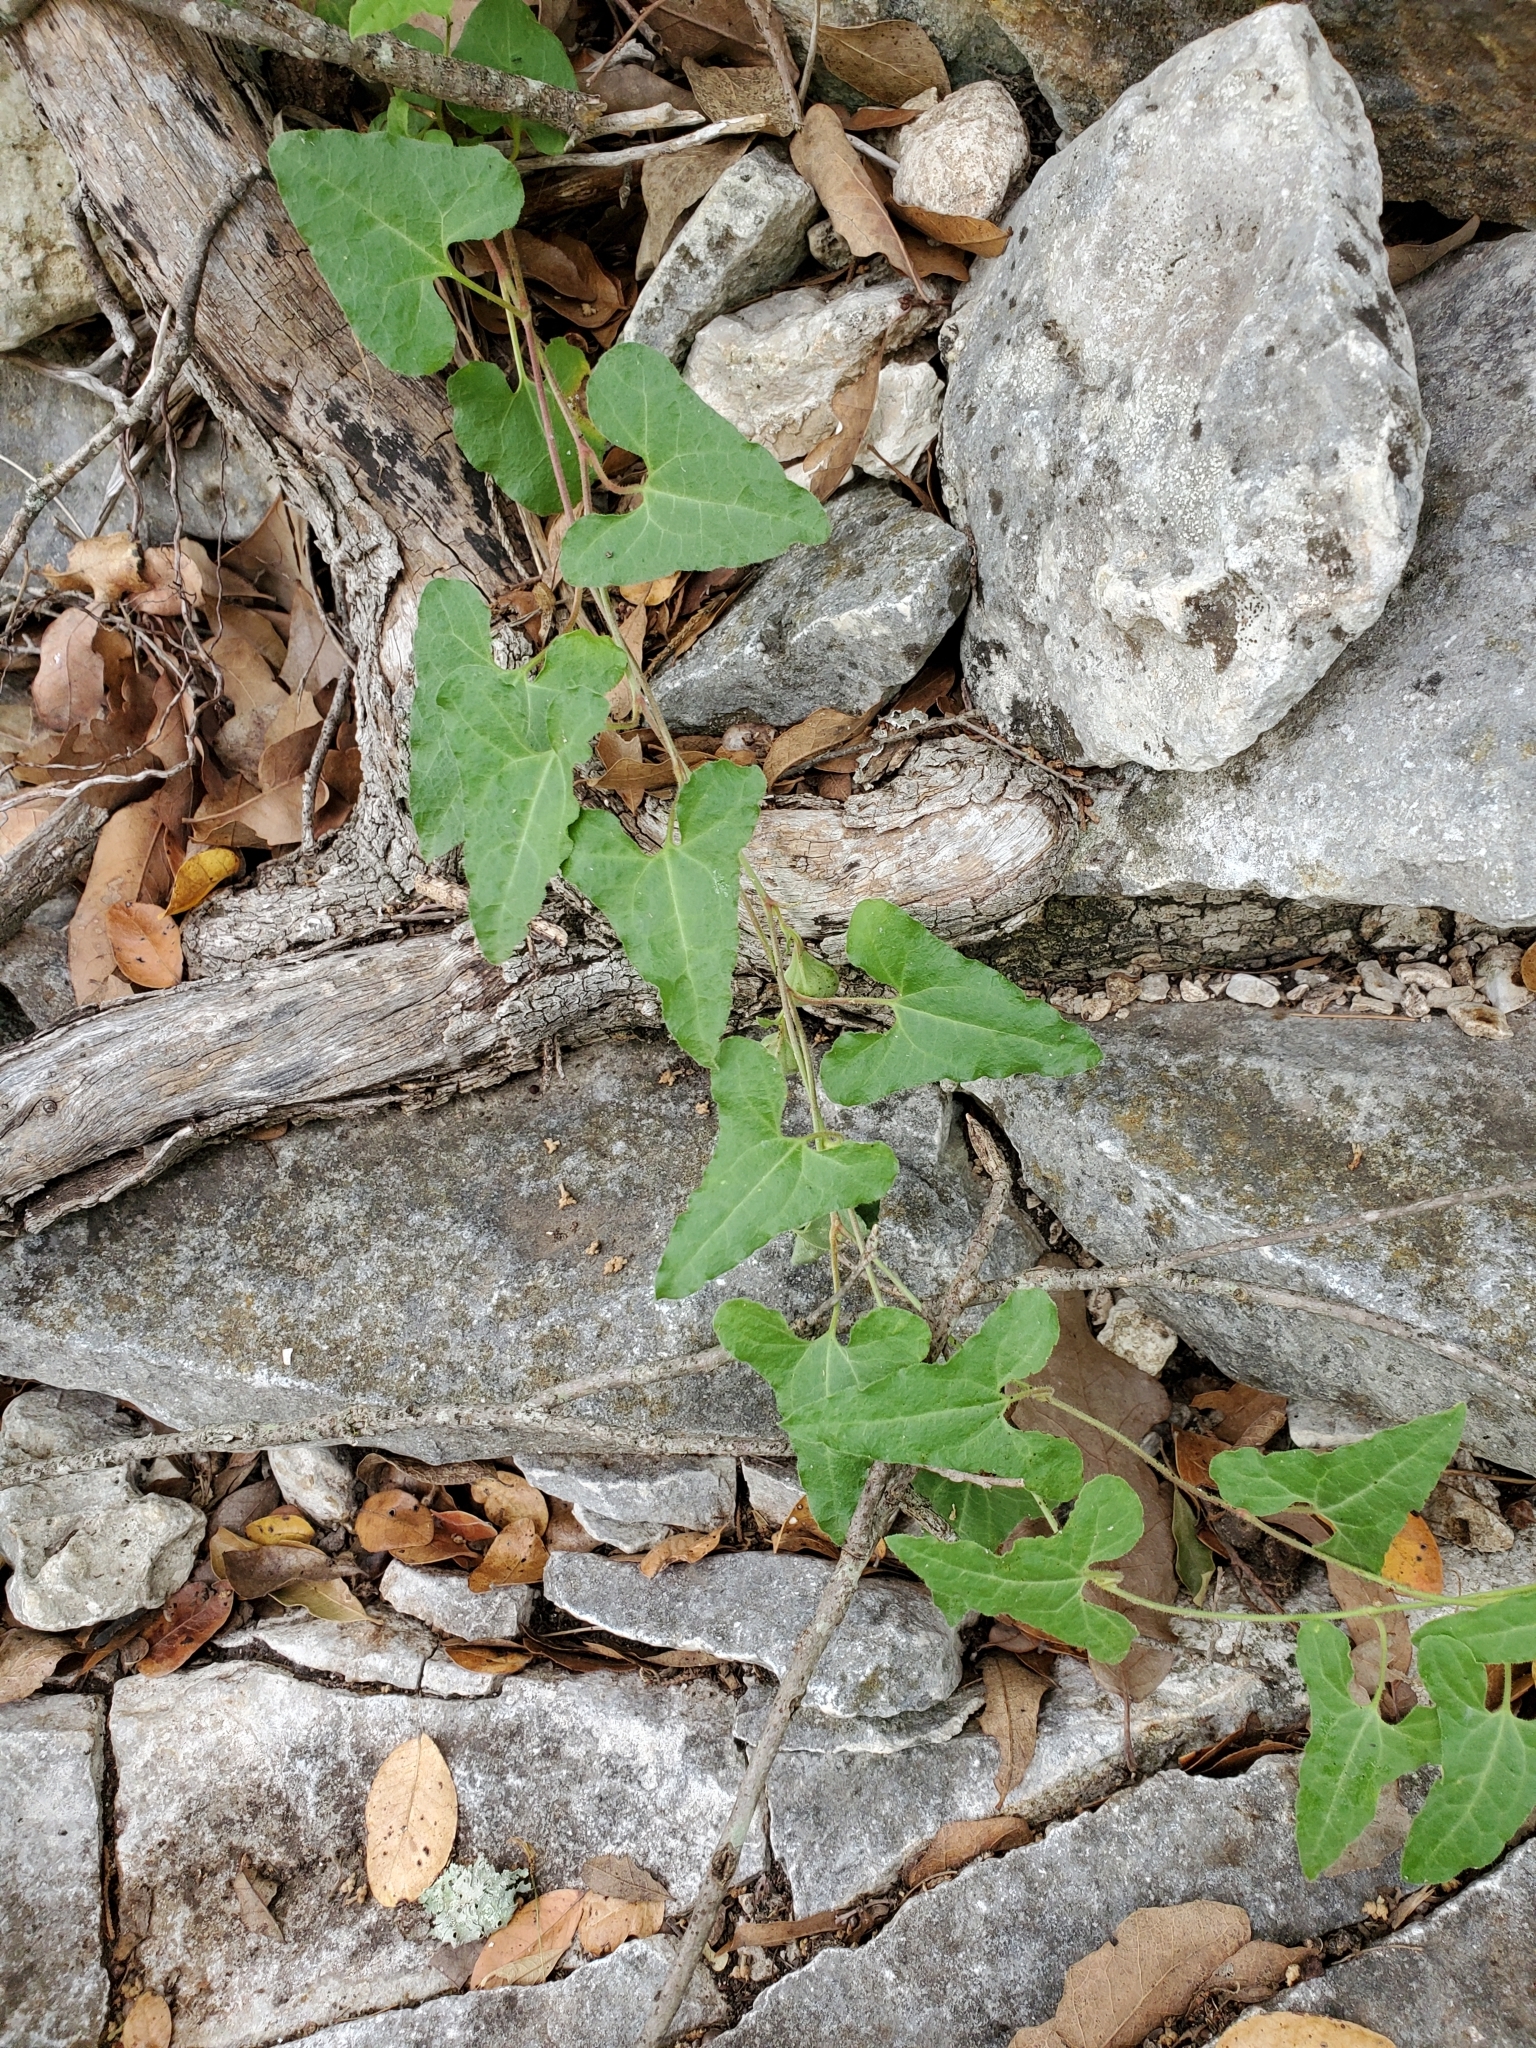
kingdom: Plantae
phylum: Tracheophyta
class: Magnoliopsida
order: Piperales
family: Aristolochiaceae
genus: Aristolochia
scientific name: Aristolochia coryi
